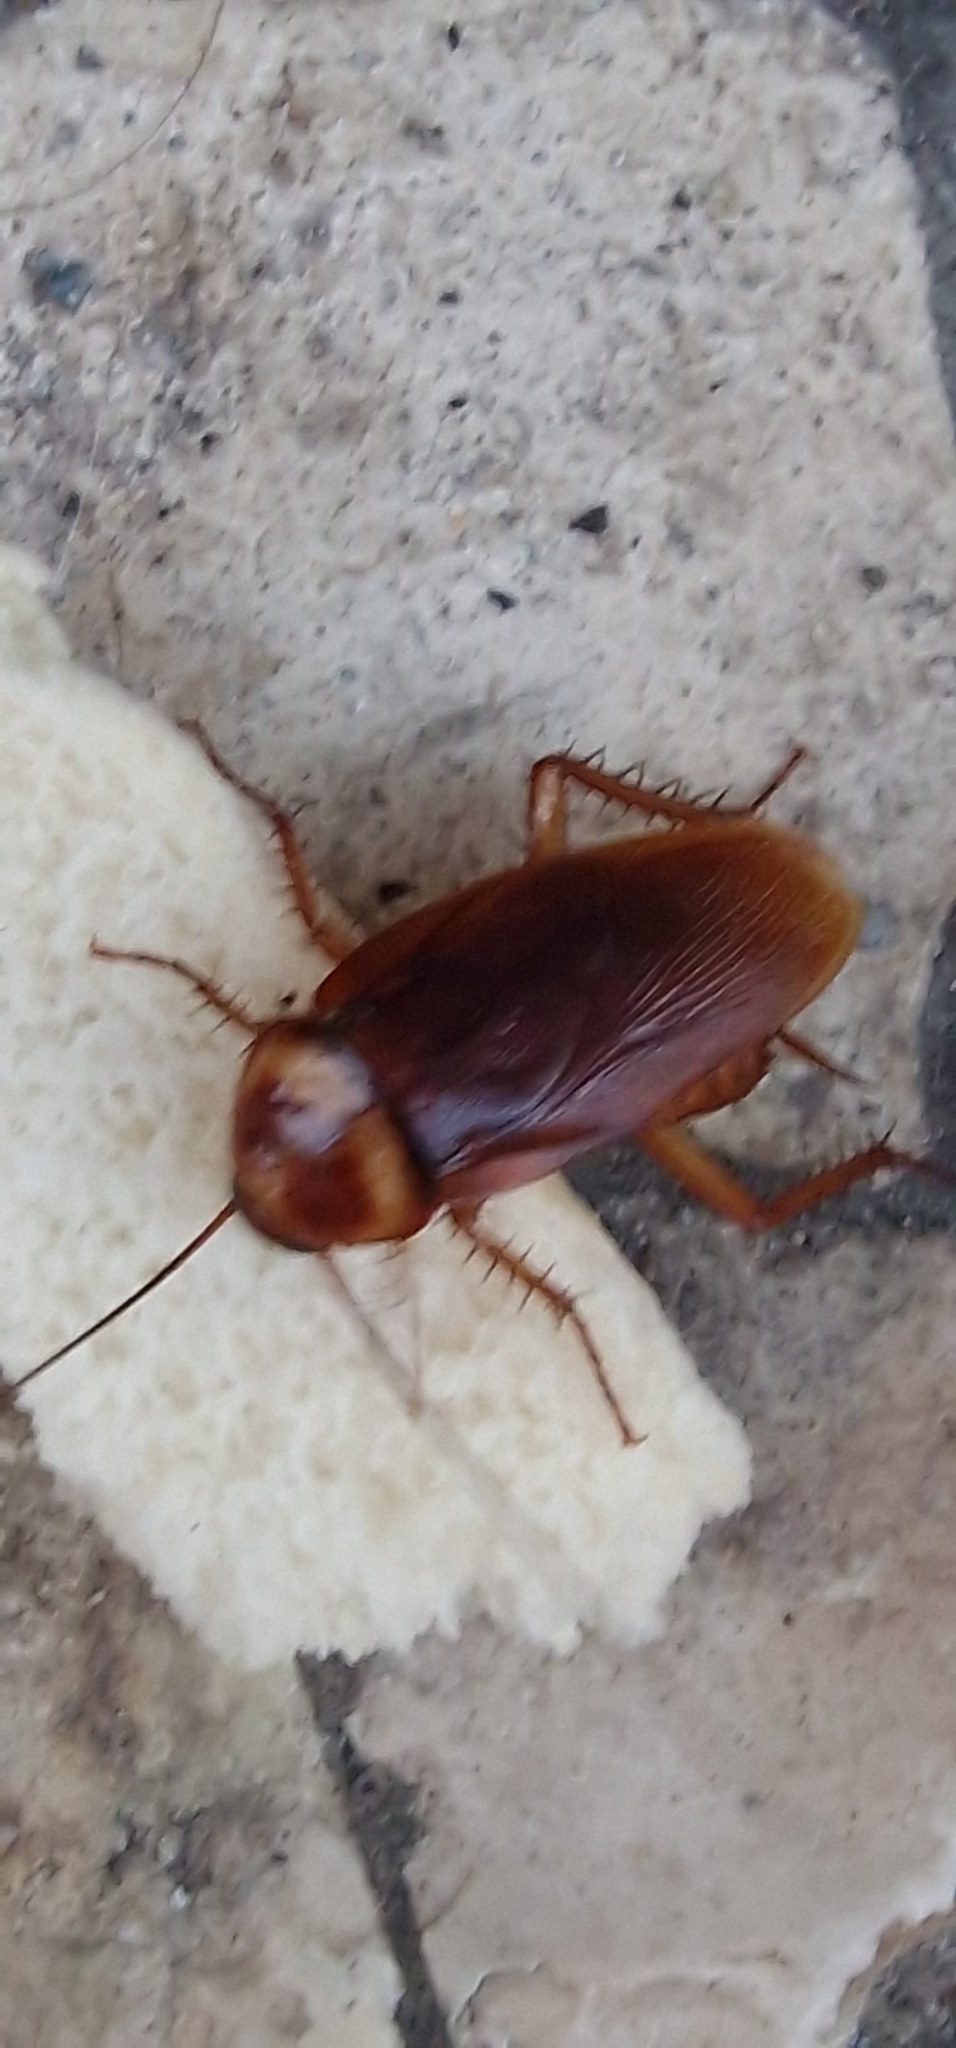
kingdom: Animalia
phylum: Arthropoda
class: Insecta
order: Blattodea
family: Blattidae
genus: Periplaneta
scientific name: Periplaneta americana
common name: American cockroach
